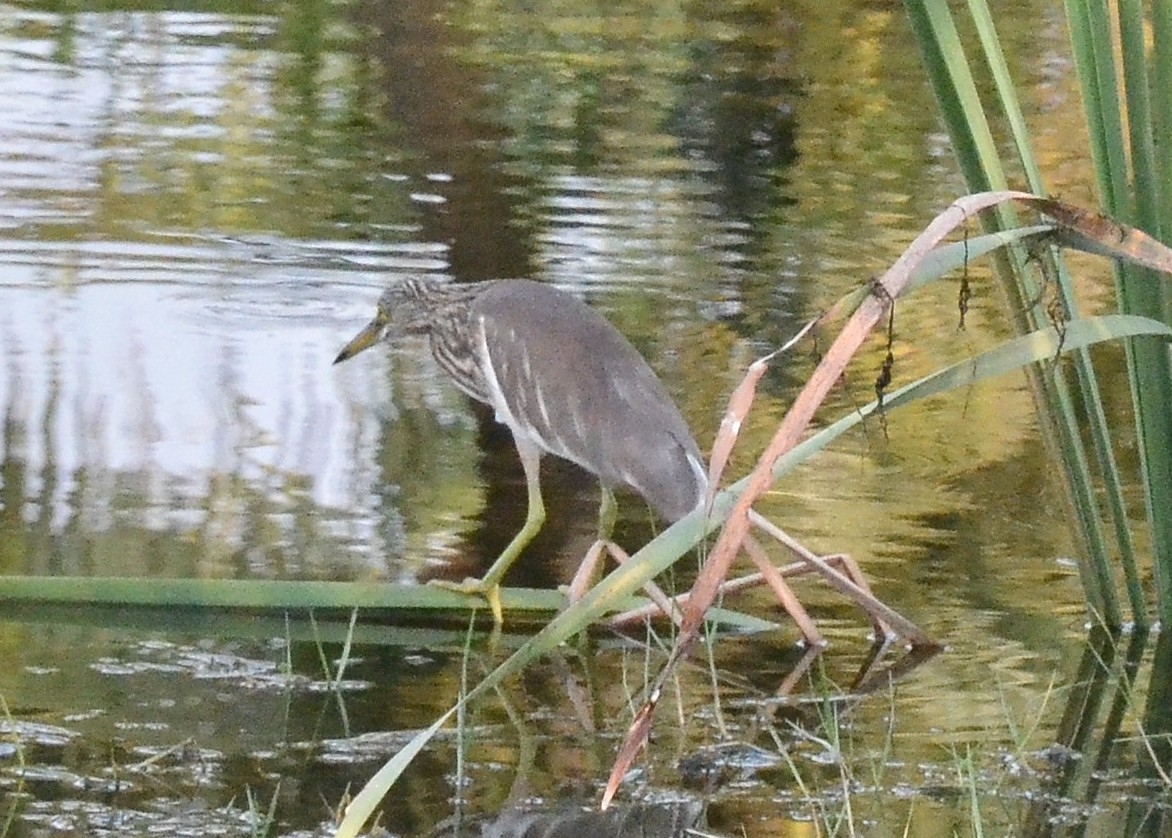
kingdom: Animalia
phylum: Chordata
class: Aves
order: Pelecaniformes
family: Ardeidae
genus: Ardeola
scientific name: Ardeola grayii
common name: Indian pond heron
